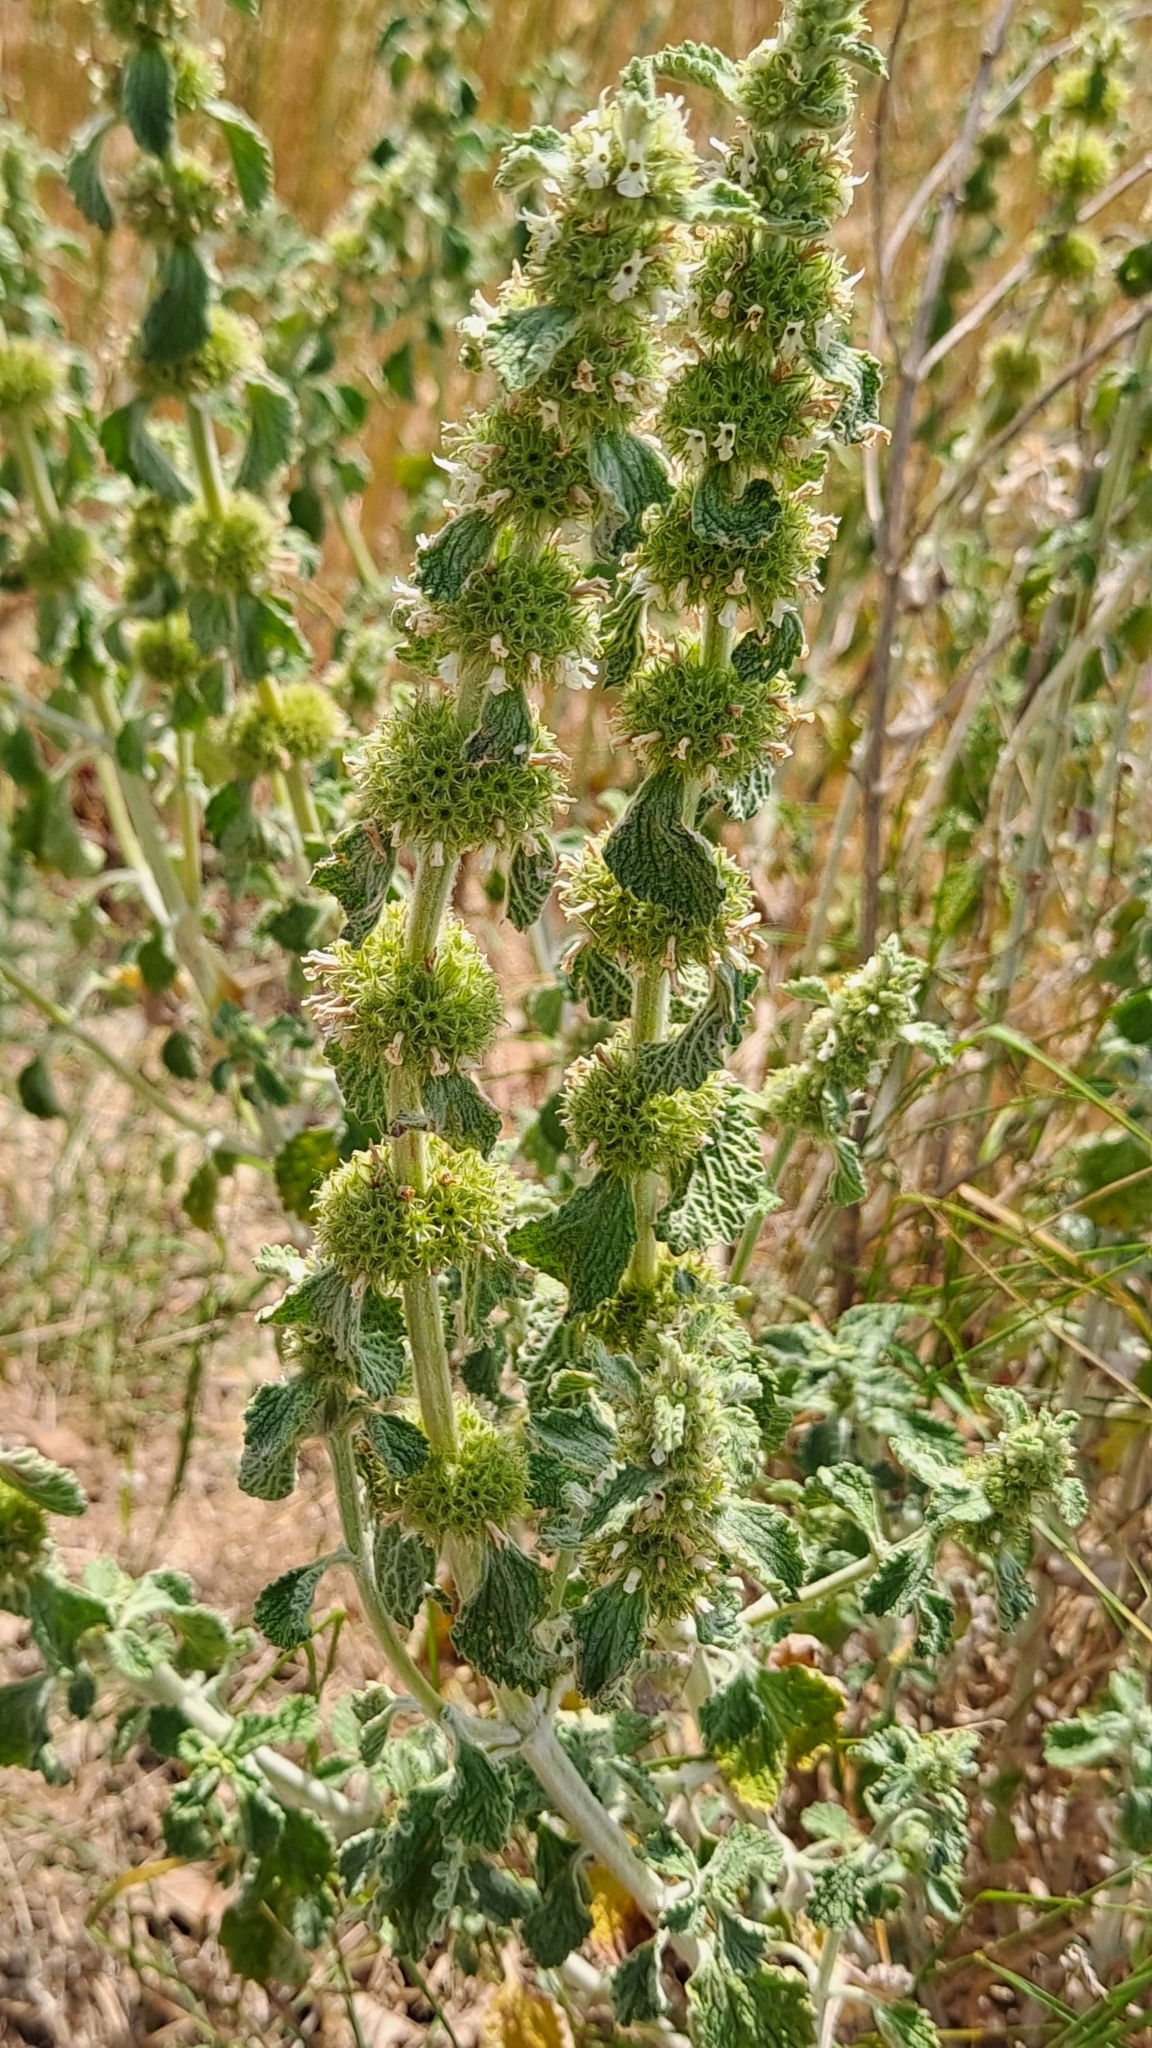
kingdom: Plantae
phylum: Tracheophyta
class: Magnoliopsida
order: Lamiales
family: Lamiaceae
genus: Marrubium
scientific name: Marrubium vulgare
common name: Horehound
